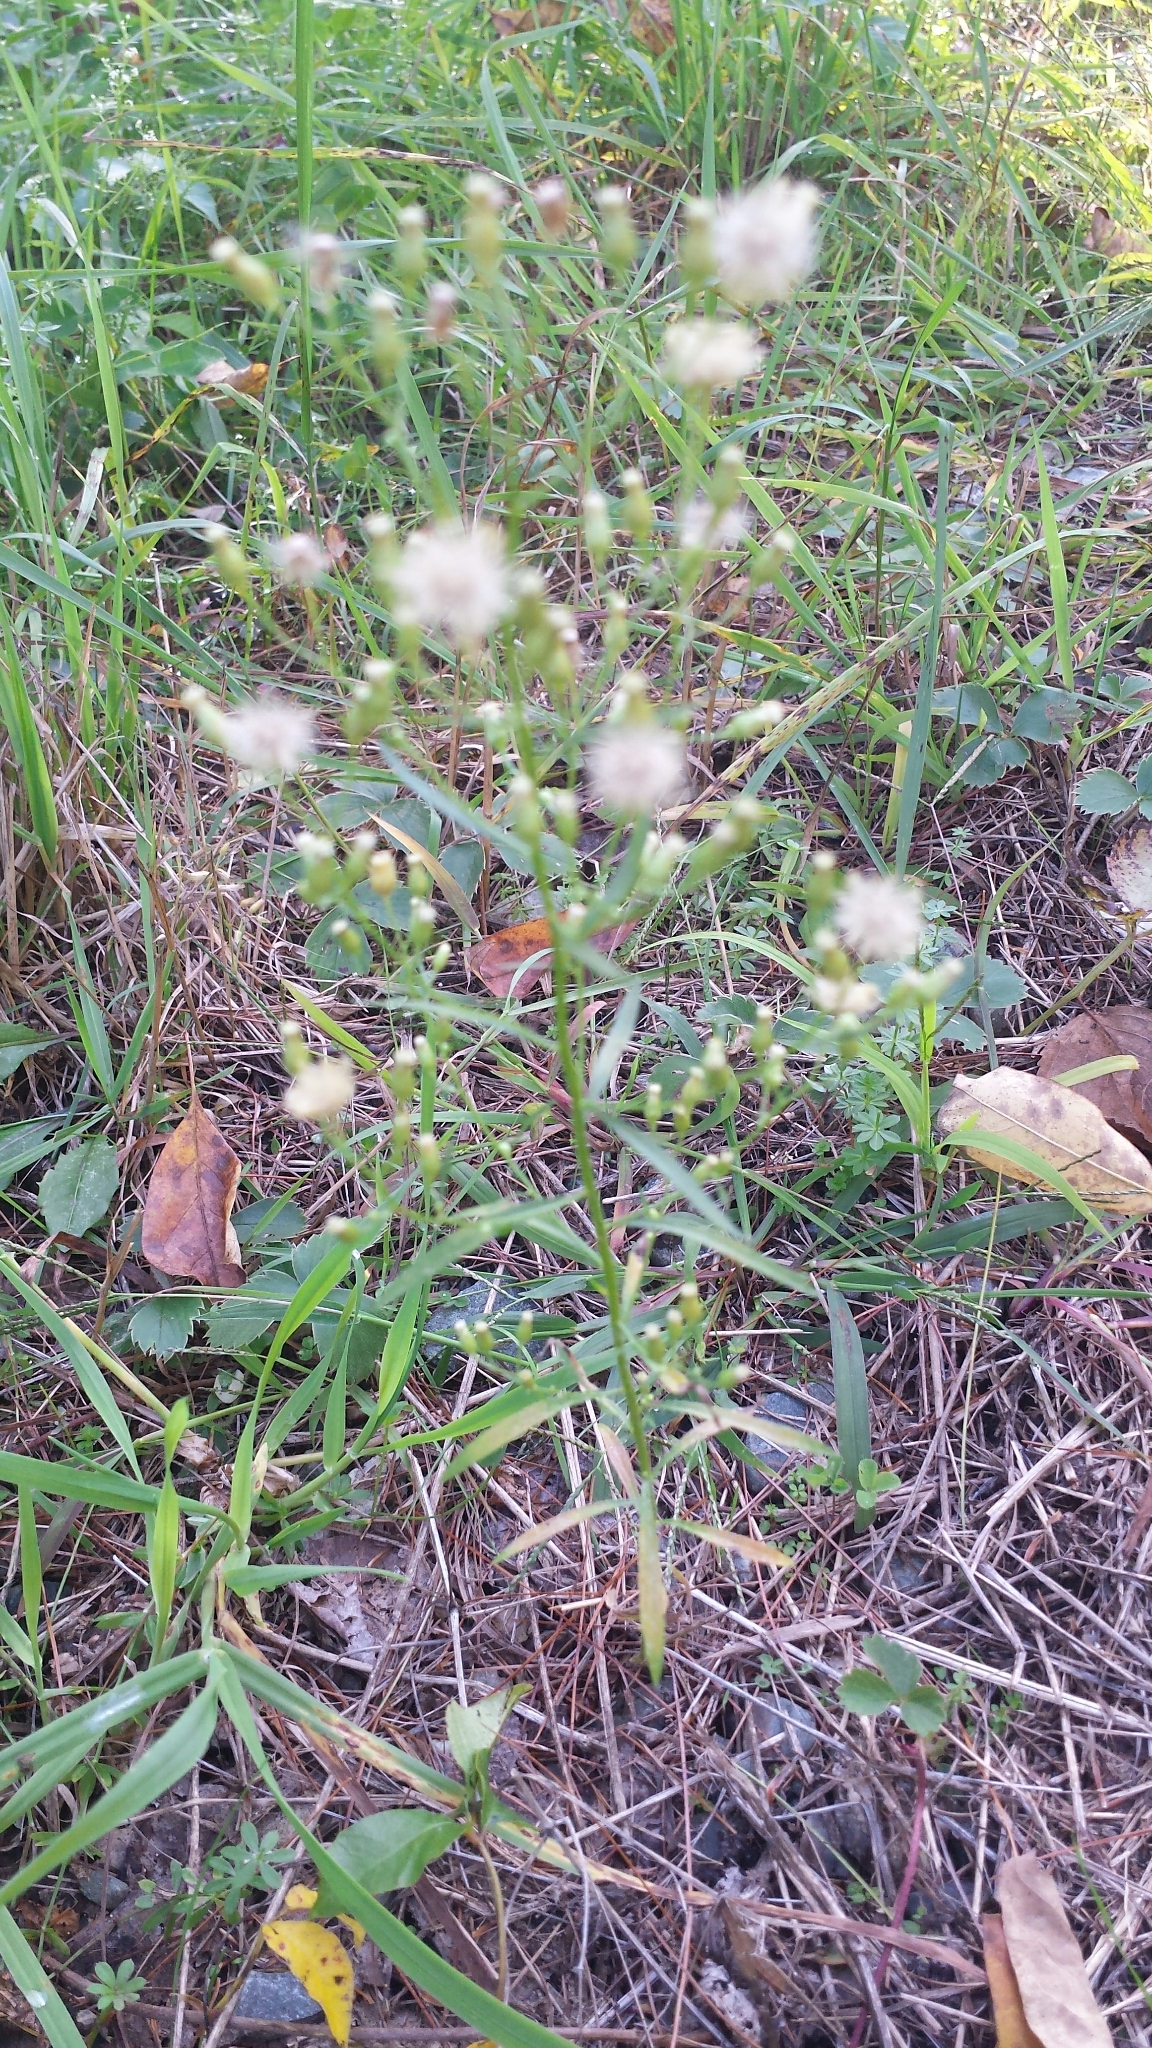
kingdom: Plantae
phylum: Tracheophyta
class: Magnoliopsida
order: Asterales
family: Asteraceae
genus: Erigeron
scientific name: Erigeron canadensis
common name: Canadian fleabane
